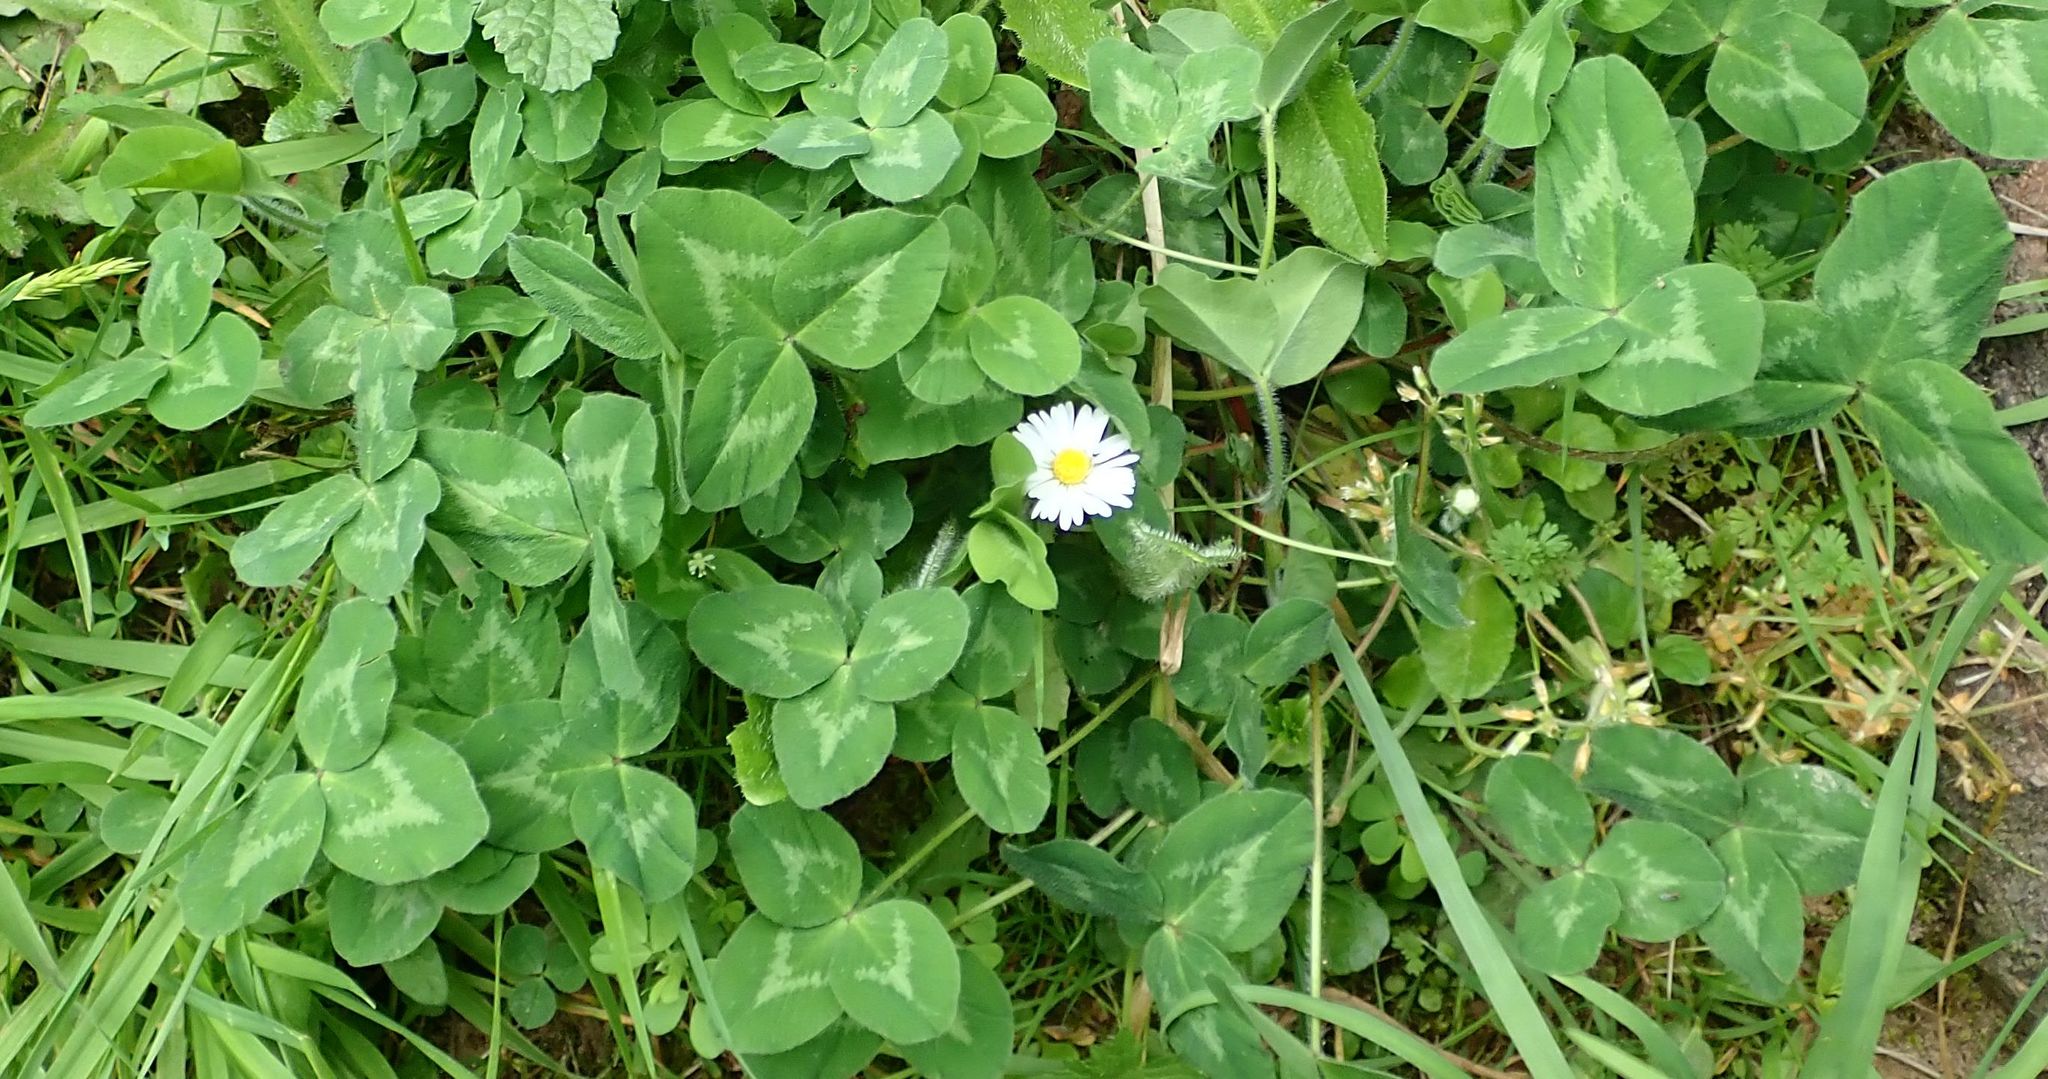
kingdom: Plantae
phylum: Tracheophyta
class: Magnoliopsida
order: Fabales
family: Fabaceae
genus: Trifolium
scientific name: Trifolium pratense
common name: Red clover
